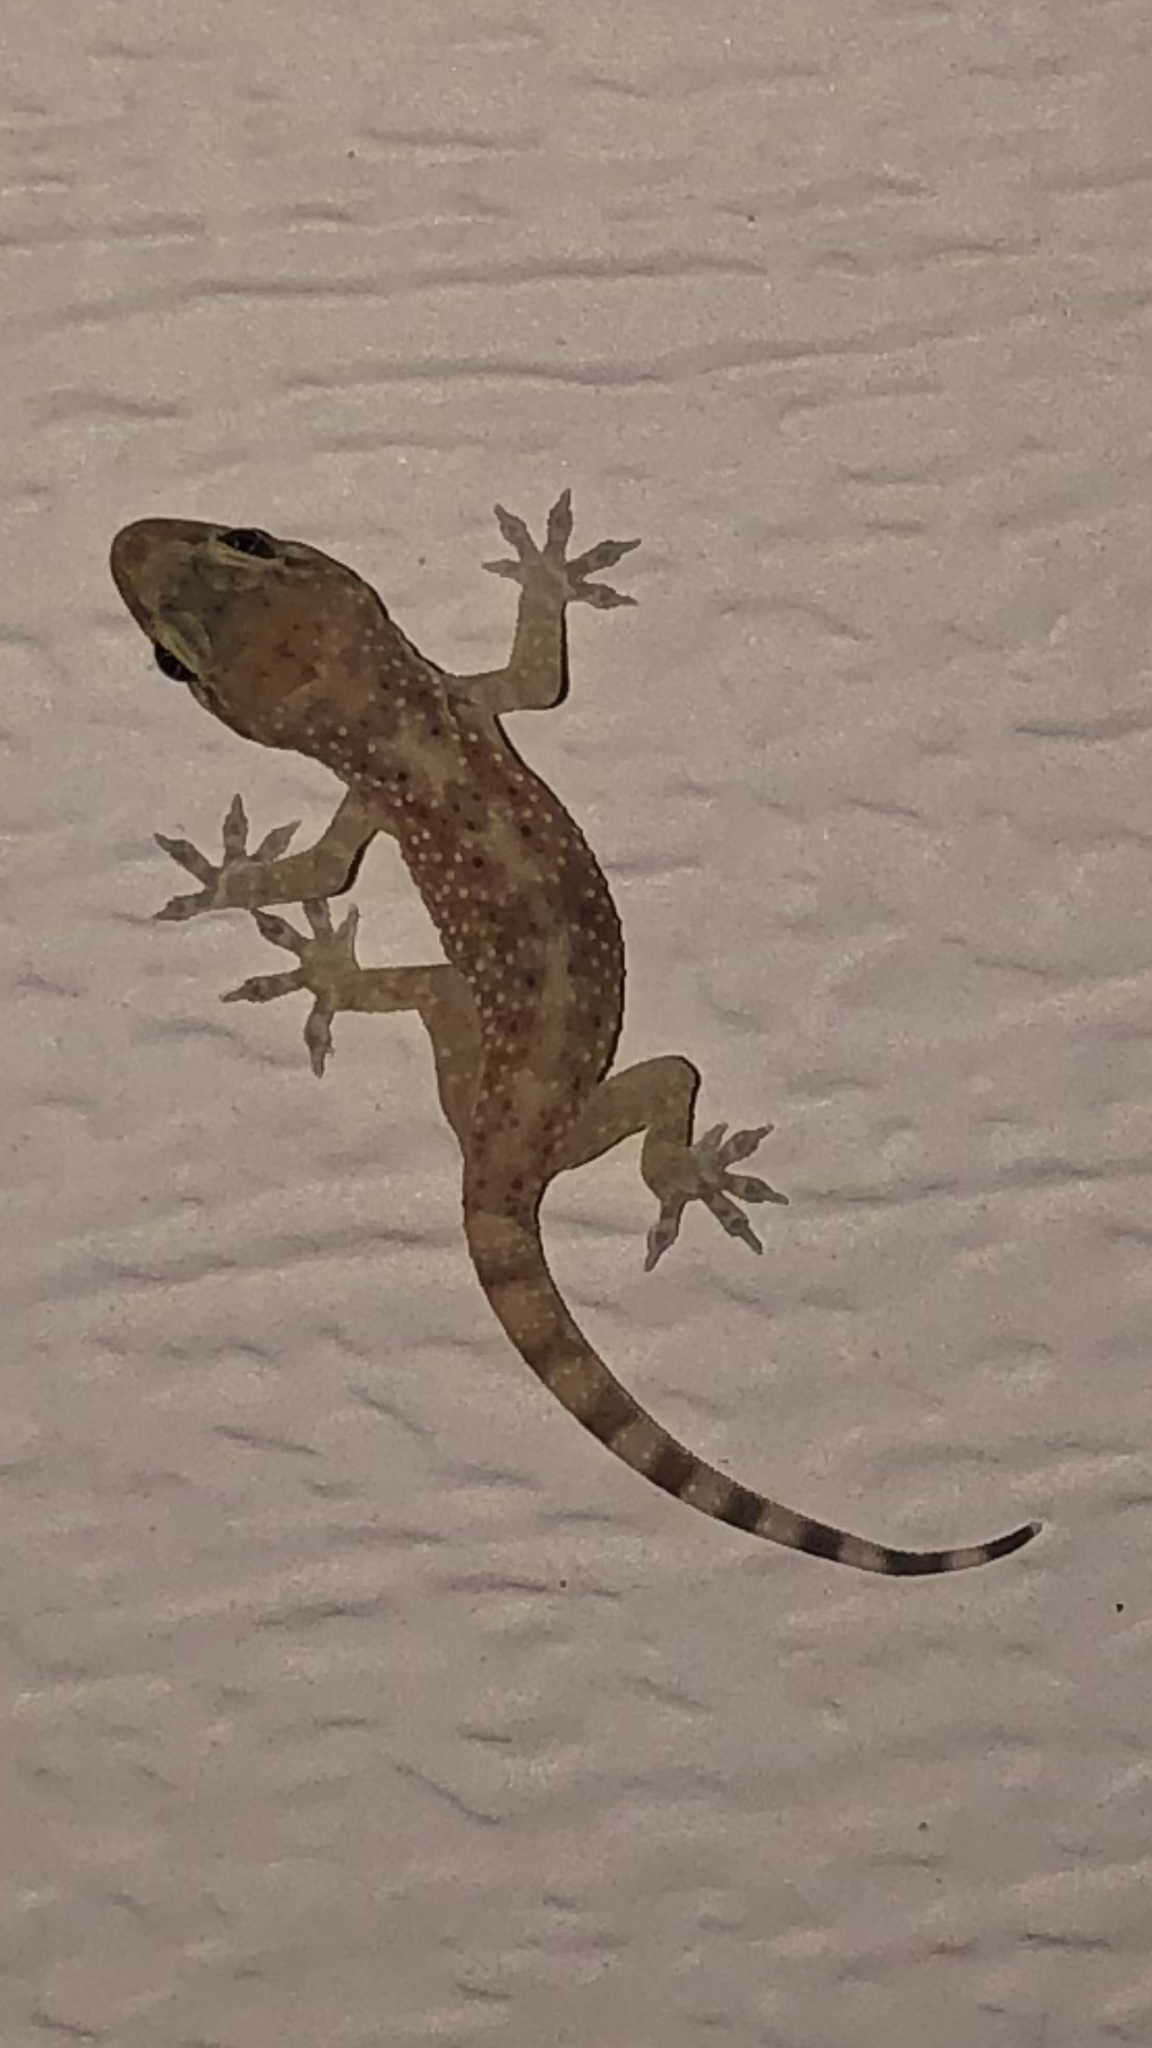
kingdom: Animalia
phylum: Chordata
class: Squamata
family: Gekkonidae
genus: Hemidactylus
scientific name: Hemidactylus turcicus
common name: Turkish gecko
